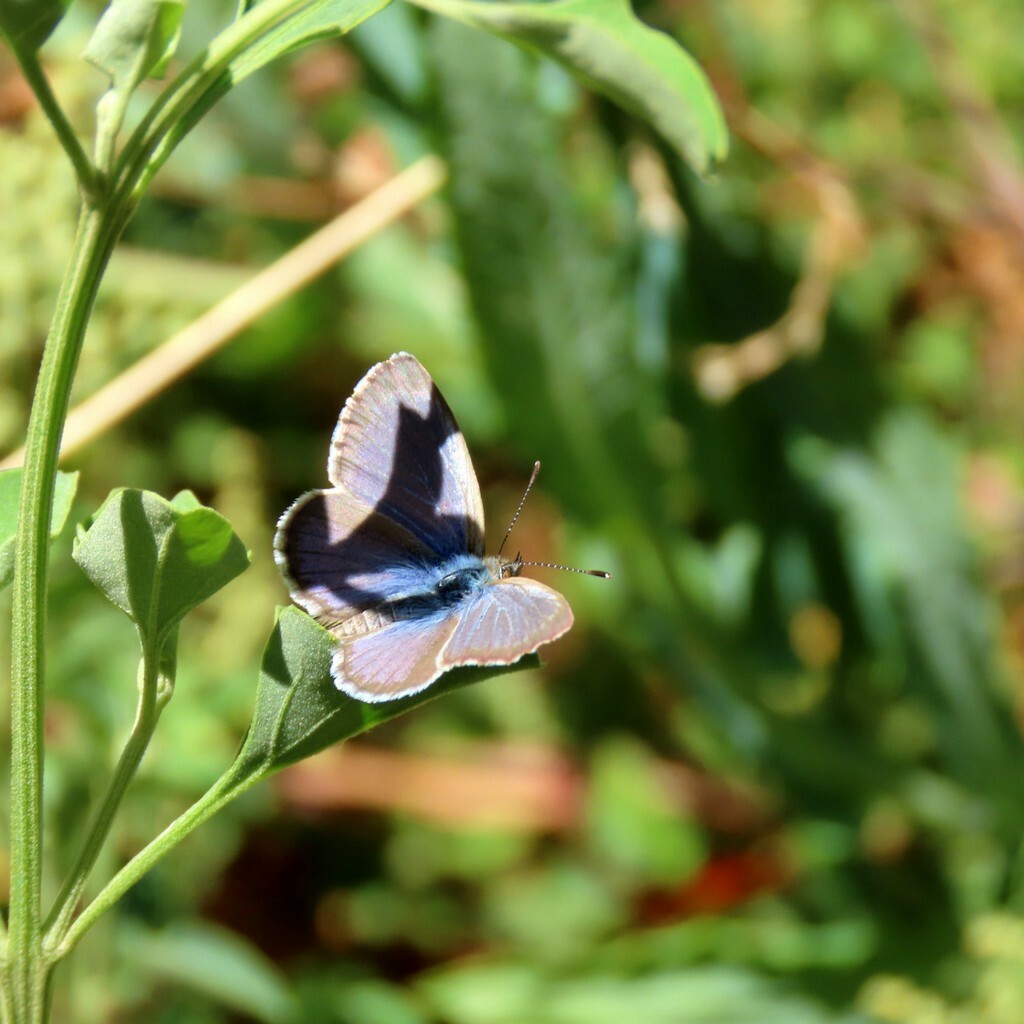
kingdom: Animalia
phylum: Arthropoda
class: Insecta
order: Lepidoptera
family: Lycaenidae
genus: Zizina
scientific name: Zizina labradus
